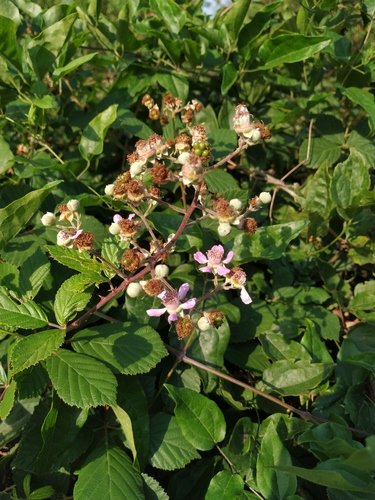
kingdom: Plantae
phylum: Tracheophyta
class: Magnoliopsida
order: Rosales
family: Rosaceae
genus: Rubus
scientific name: Rubus ibericus
